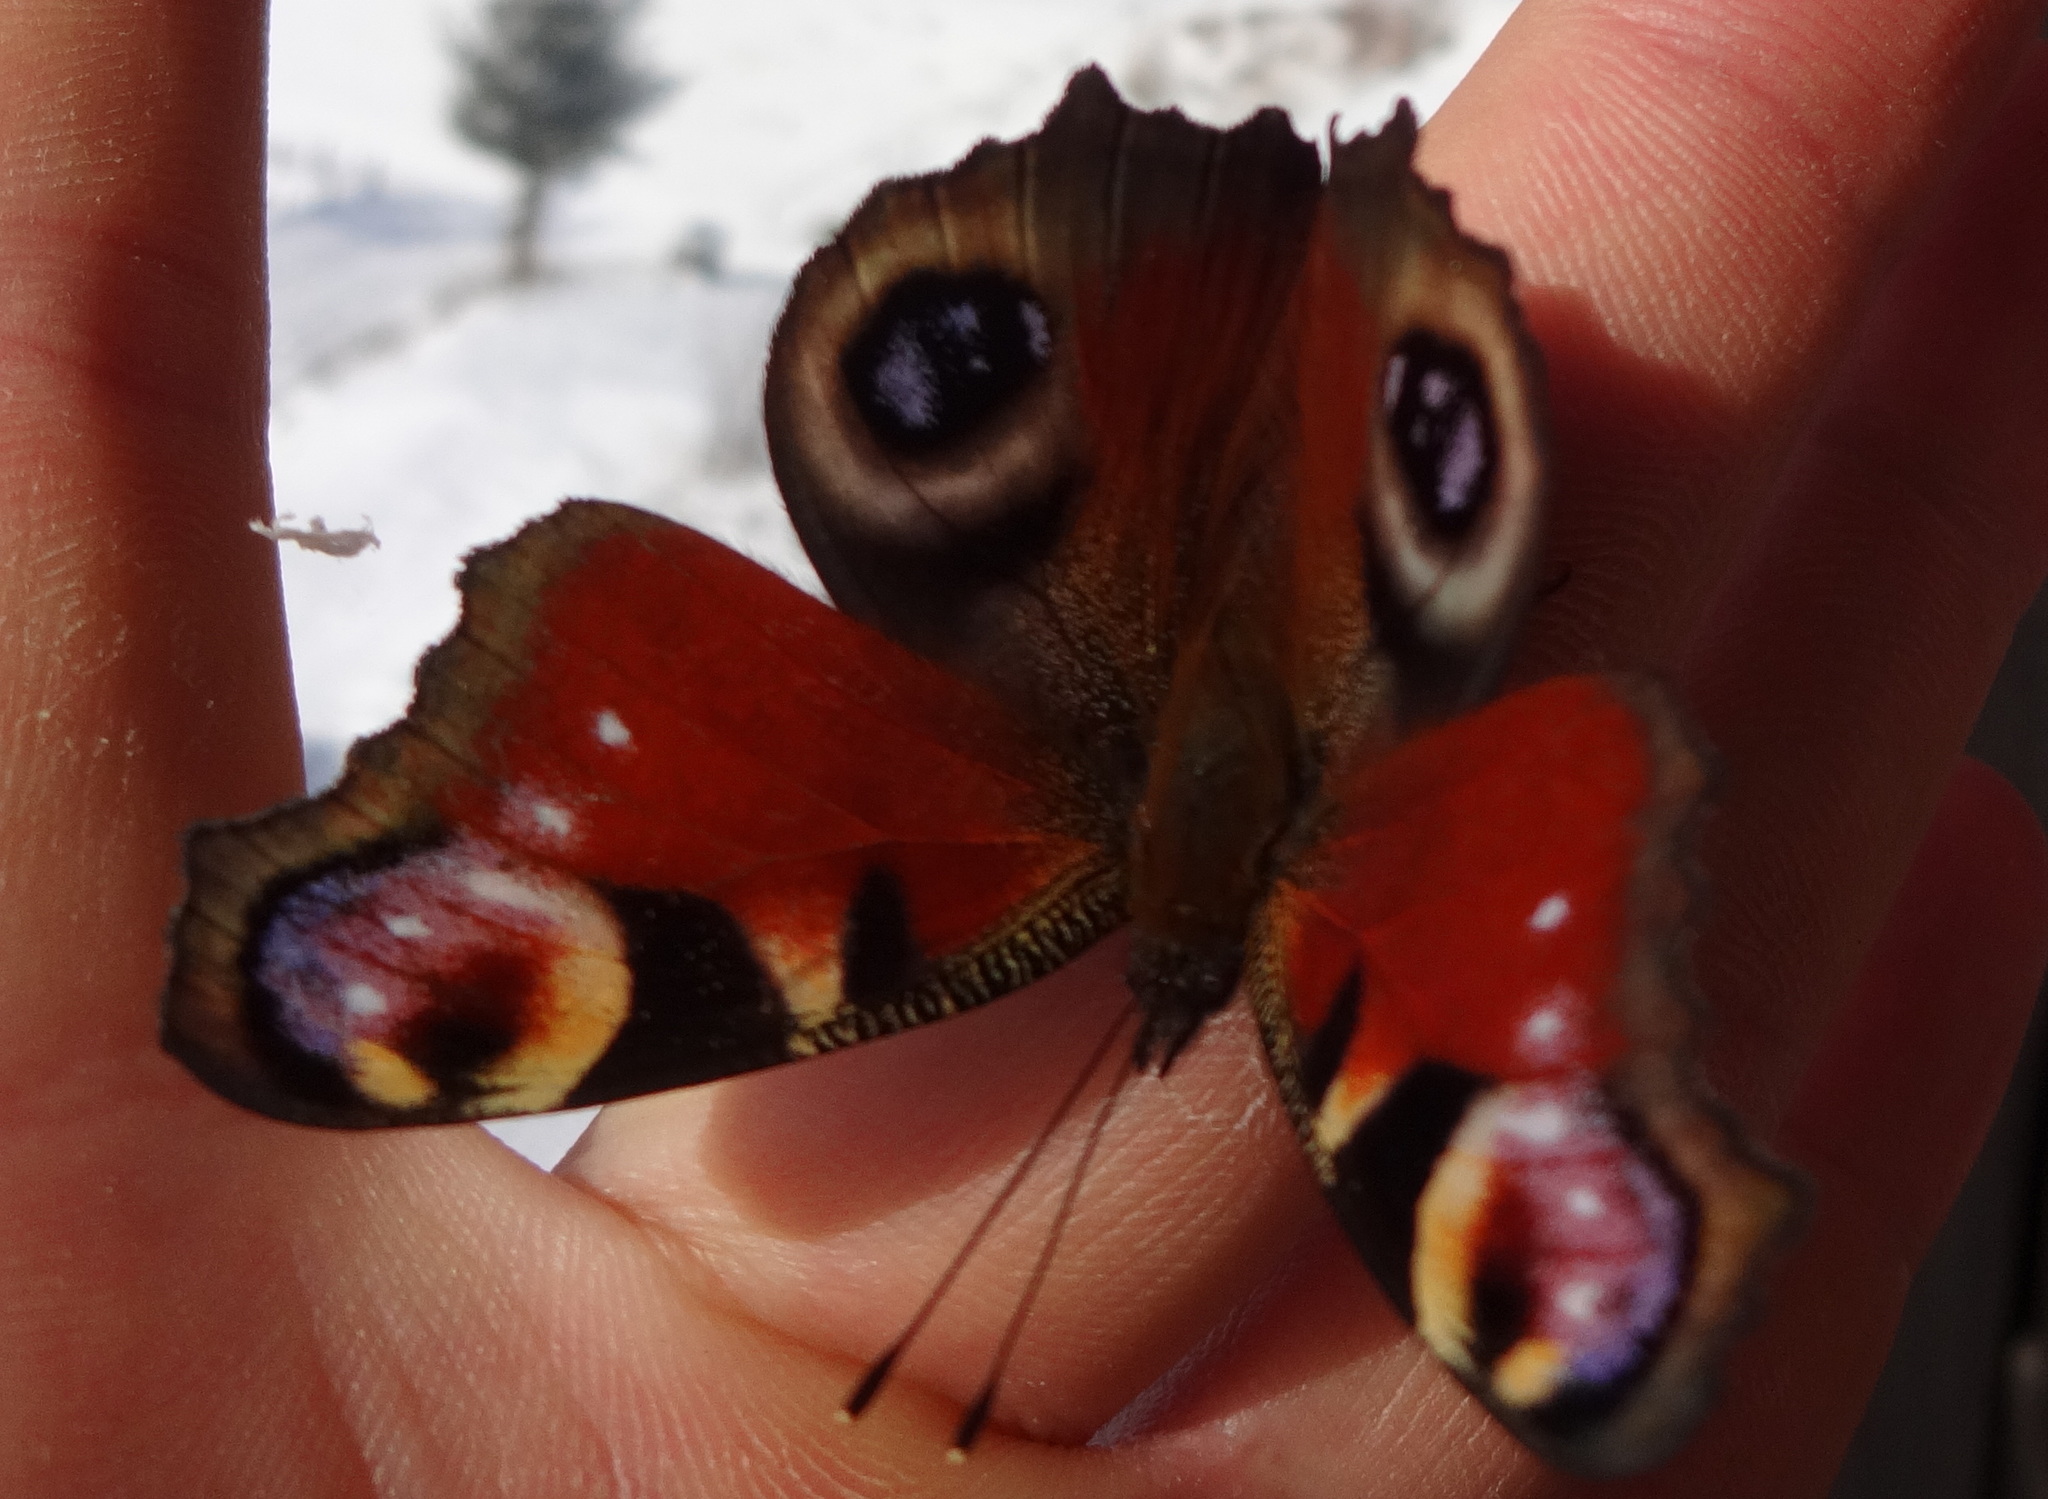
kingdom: Animalia
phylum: Arthropoda
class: Insecta
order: Lepidoptera
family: Nymphalidae
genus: Aglais
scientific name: Aglais io
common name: Peacock
